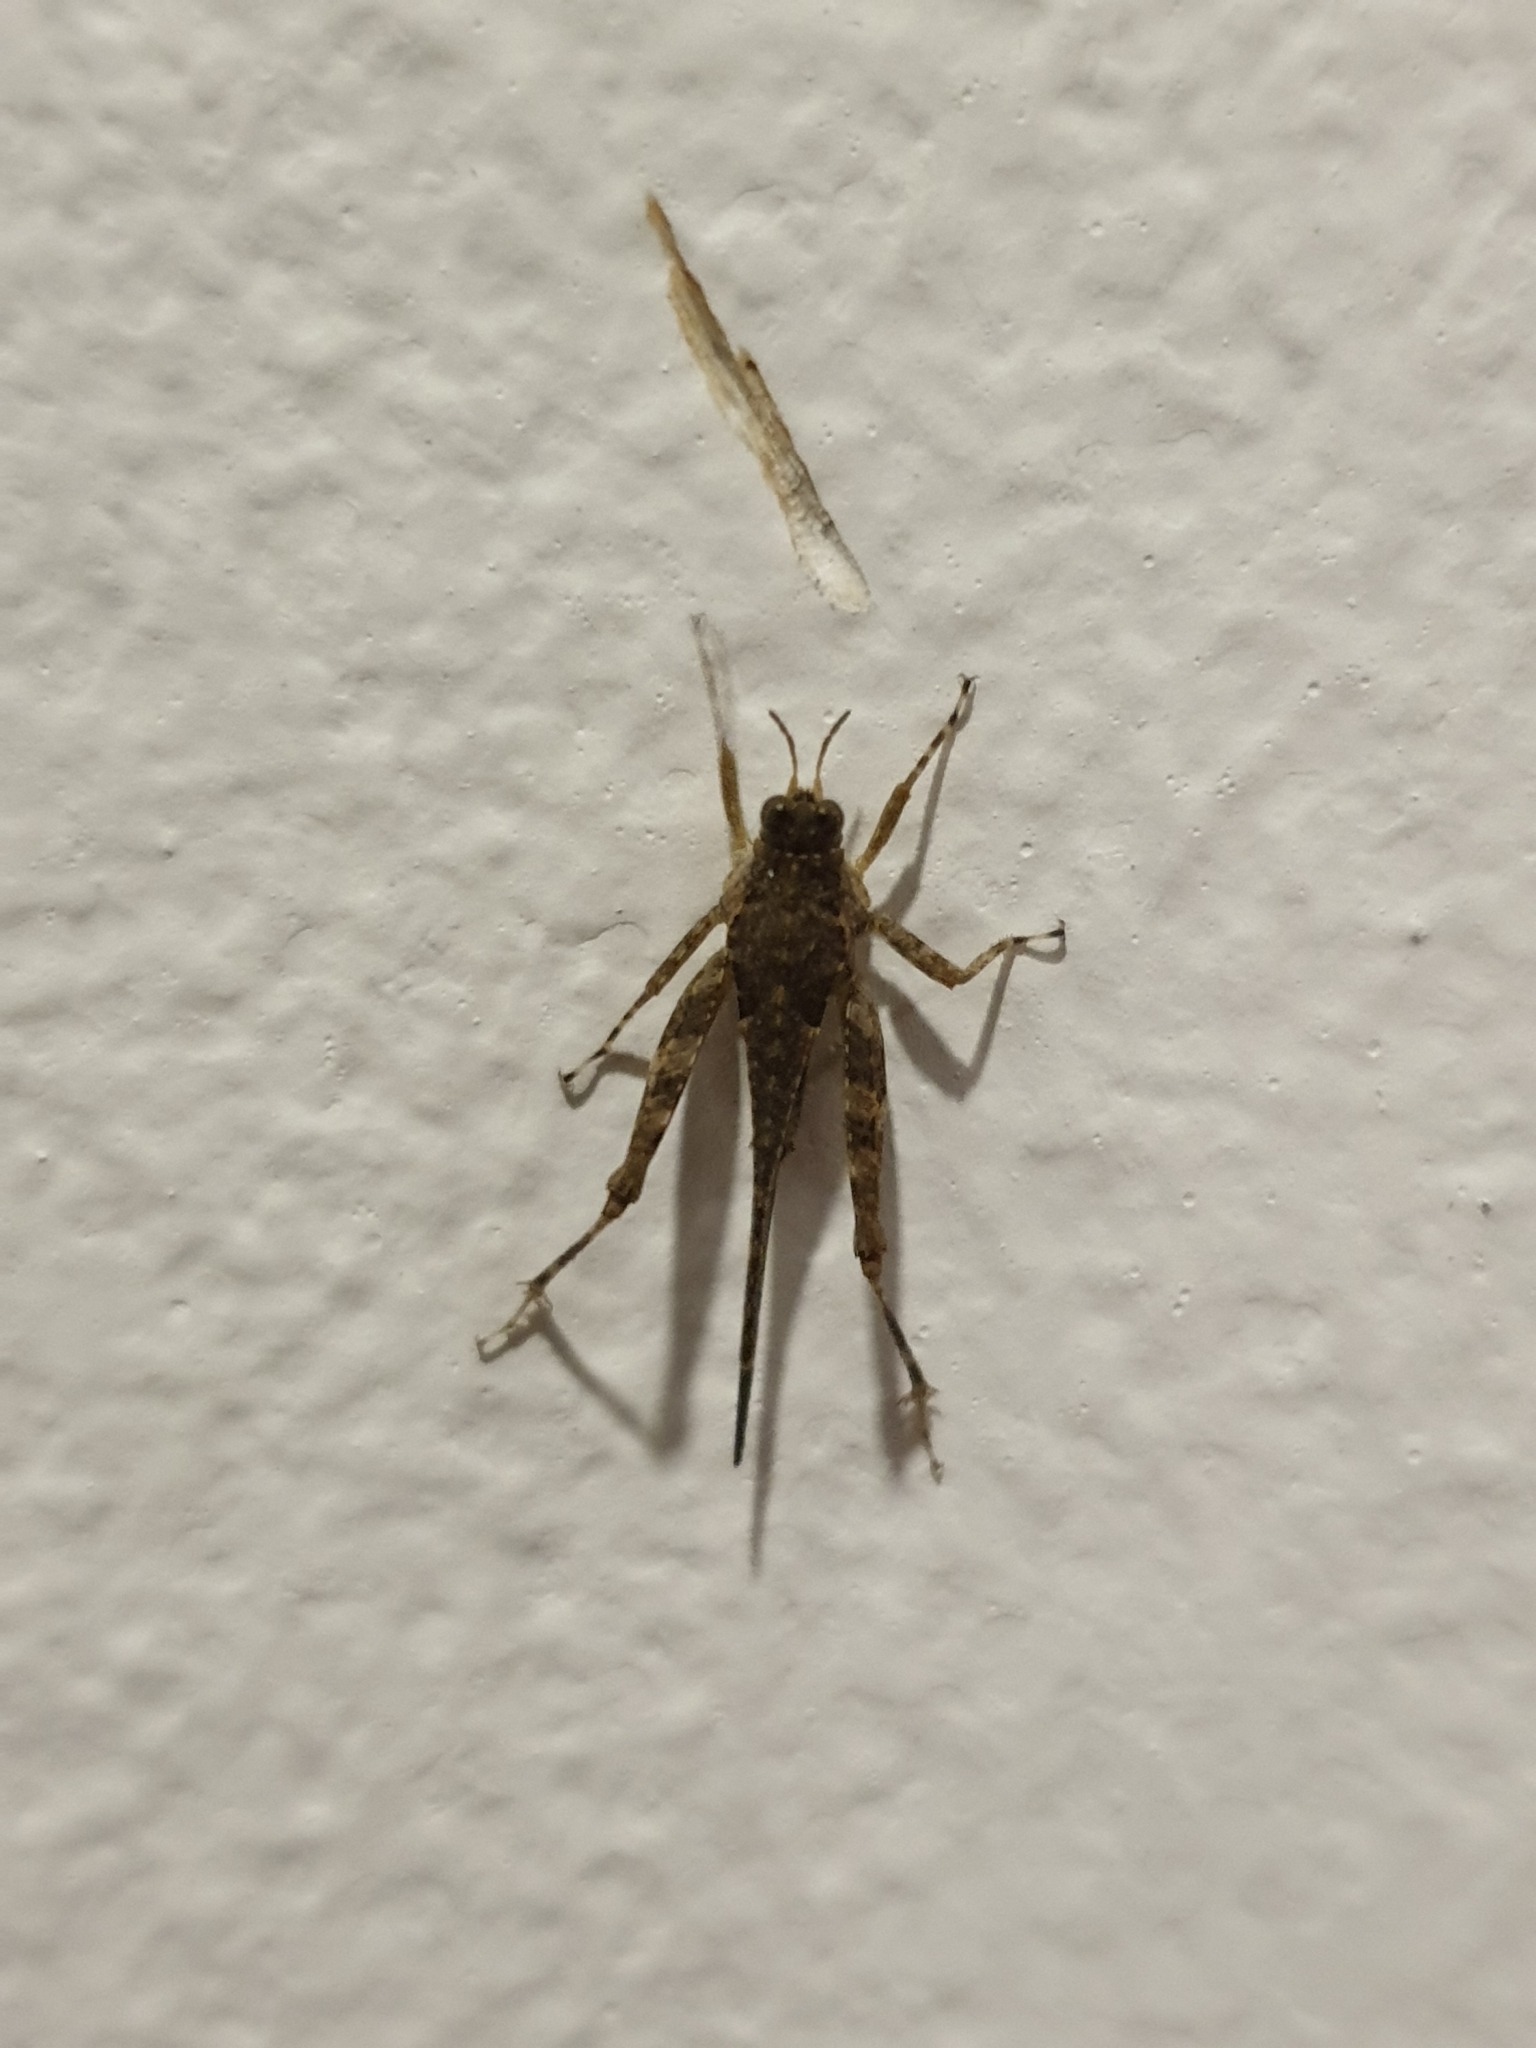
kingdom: Animalia
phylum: Arthropoda
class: Insecta
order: Orthoptera
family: Tetrigidae
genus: Euparatettix
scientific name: Euparatettix parvus
